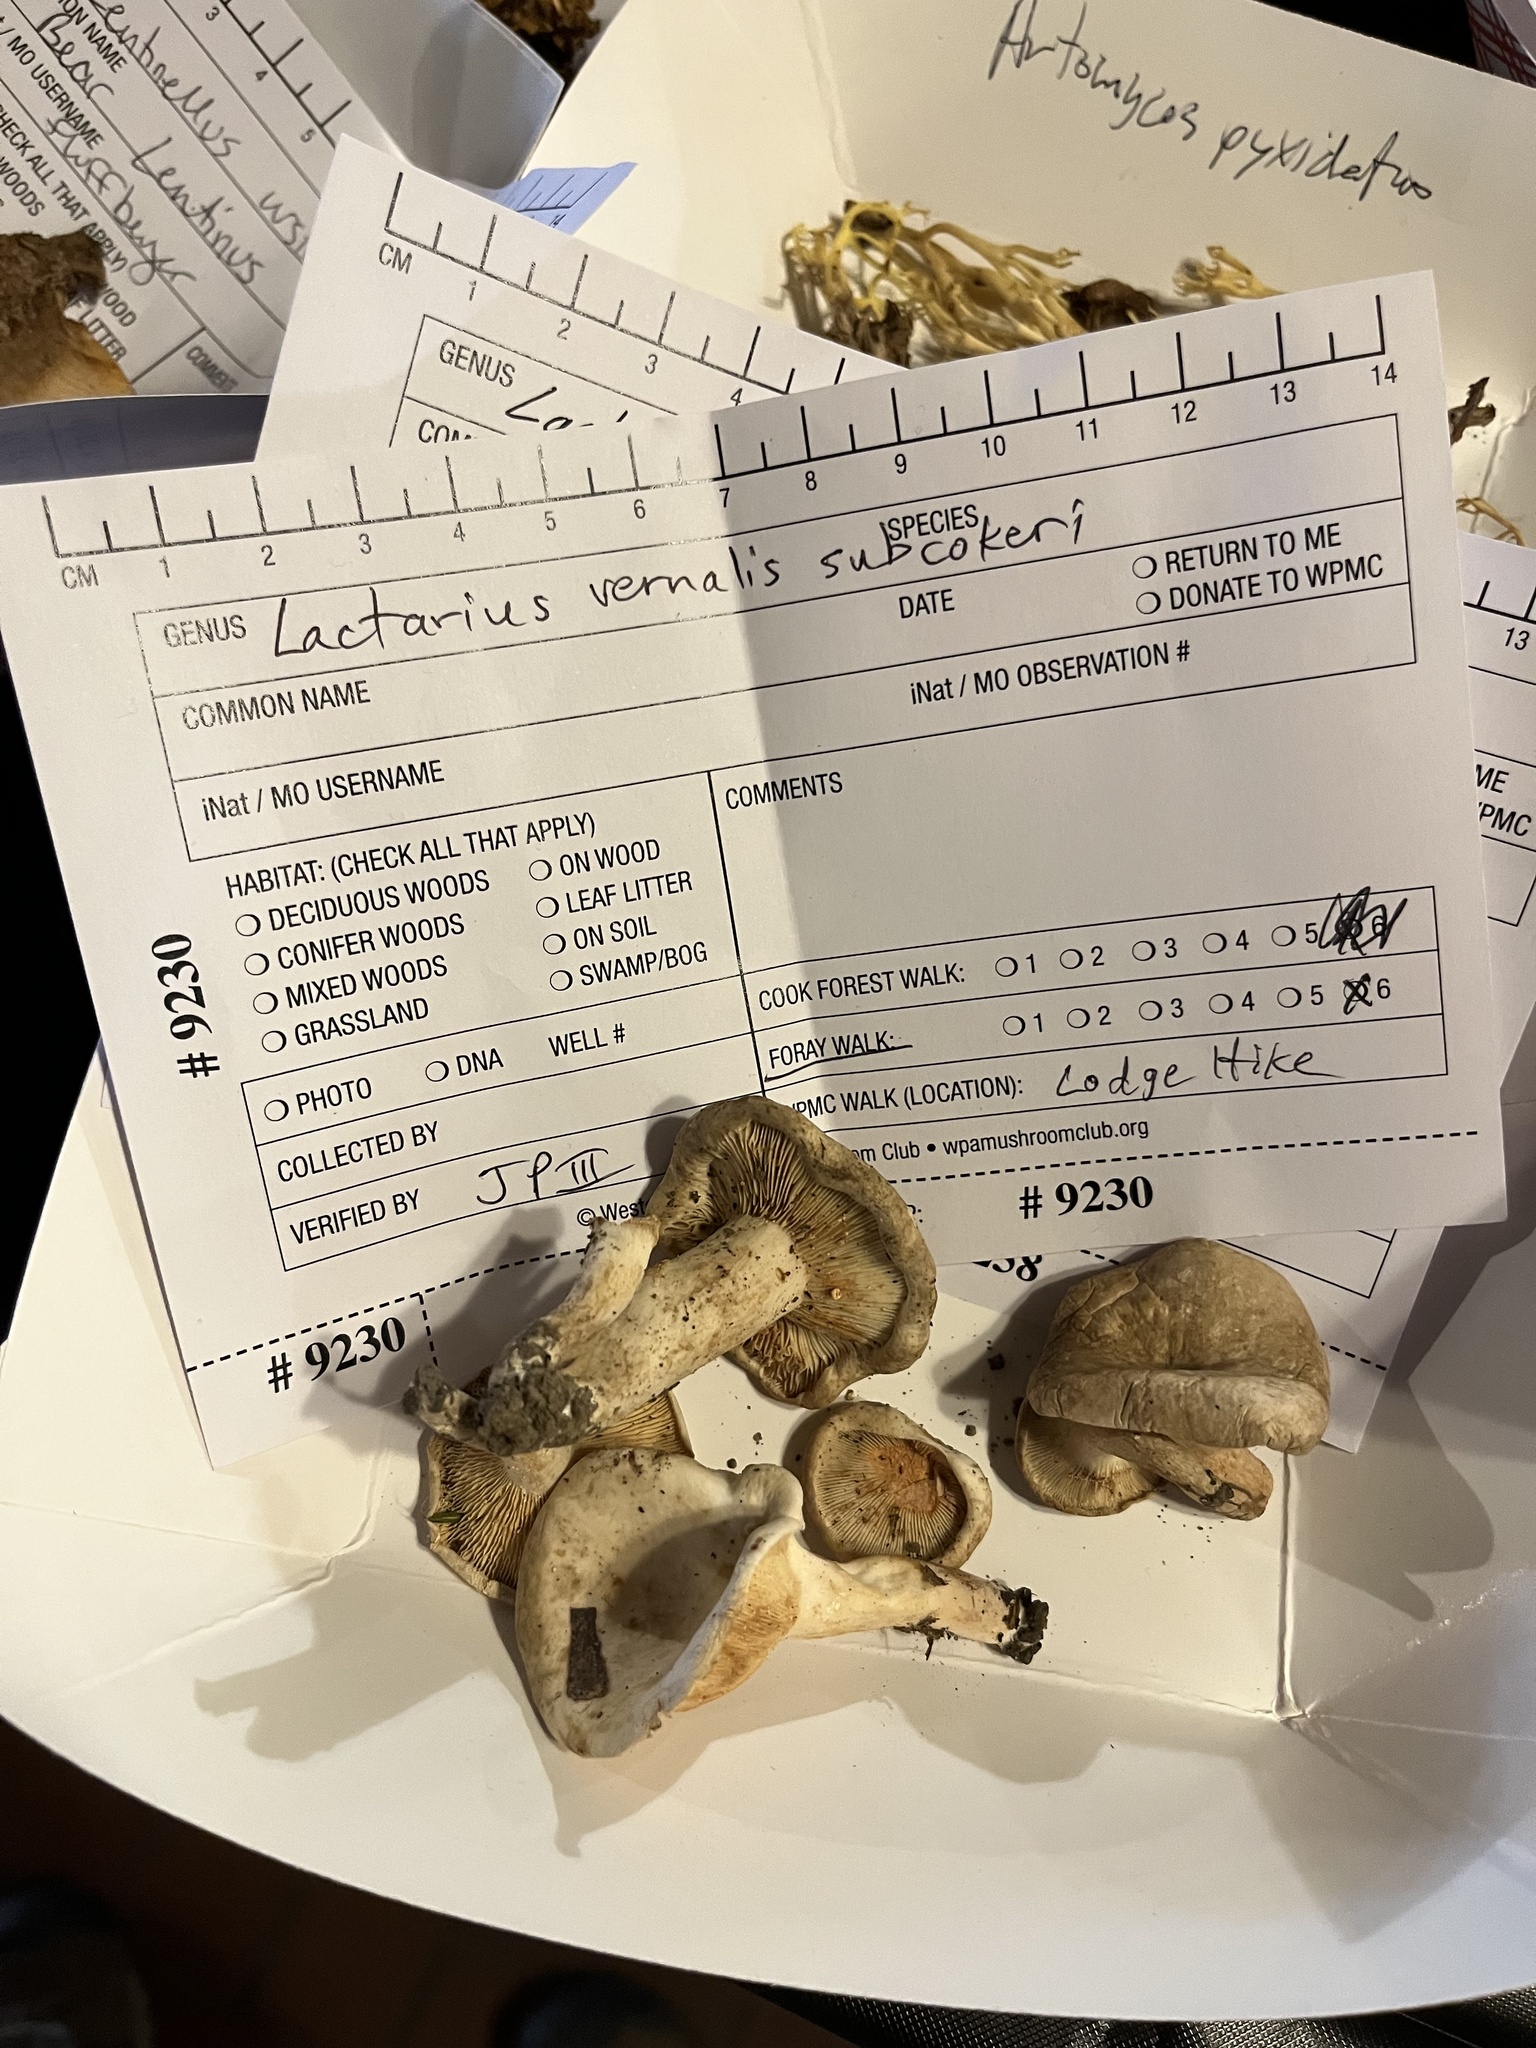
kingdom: Fungi
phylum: Basidiomycota
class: Agaricomycetes
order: Russulales
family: Russulaceae
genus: Lactarius
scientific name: Lactarius subvernalis
